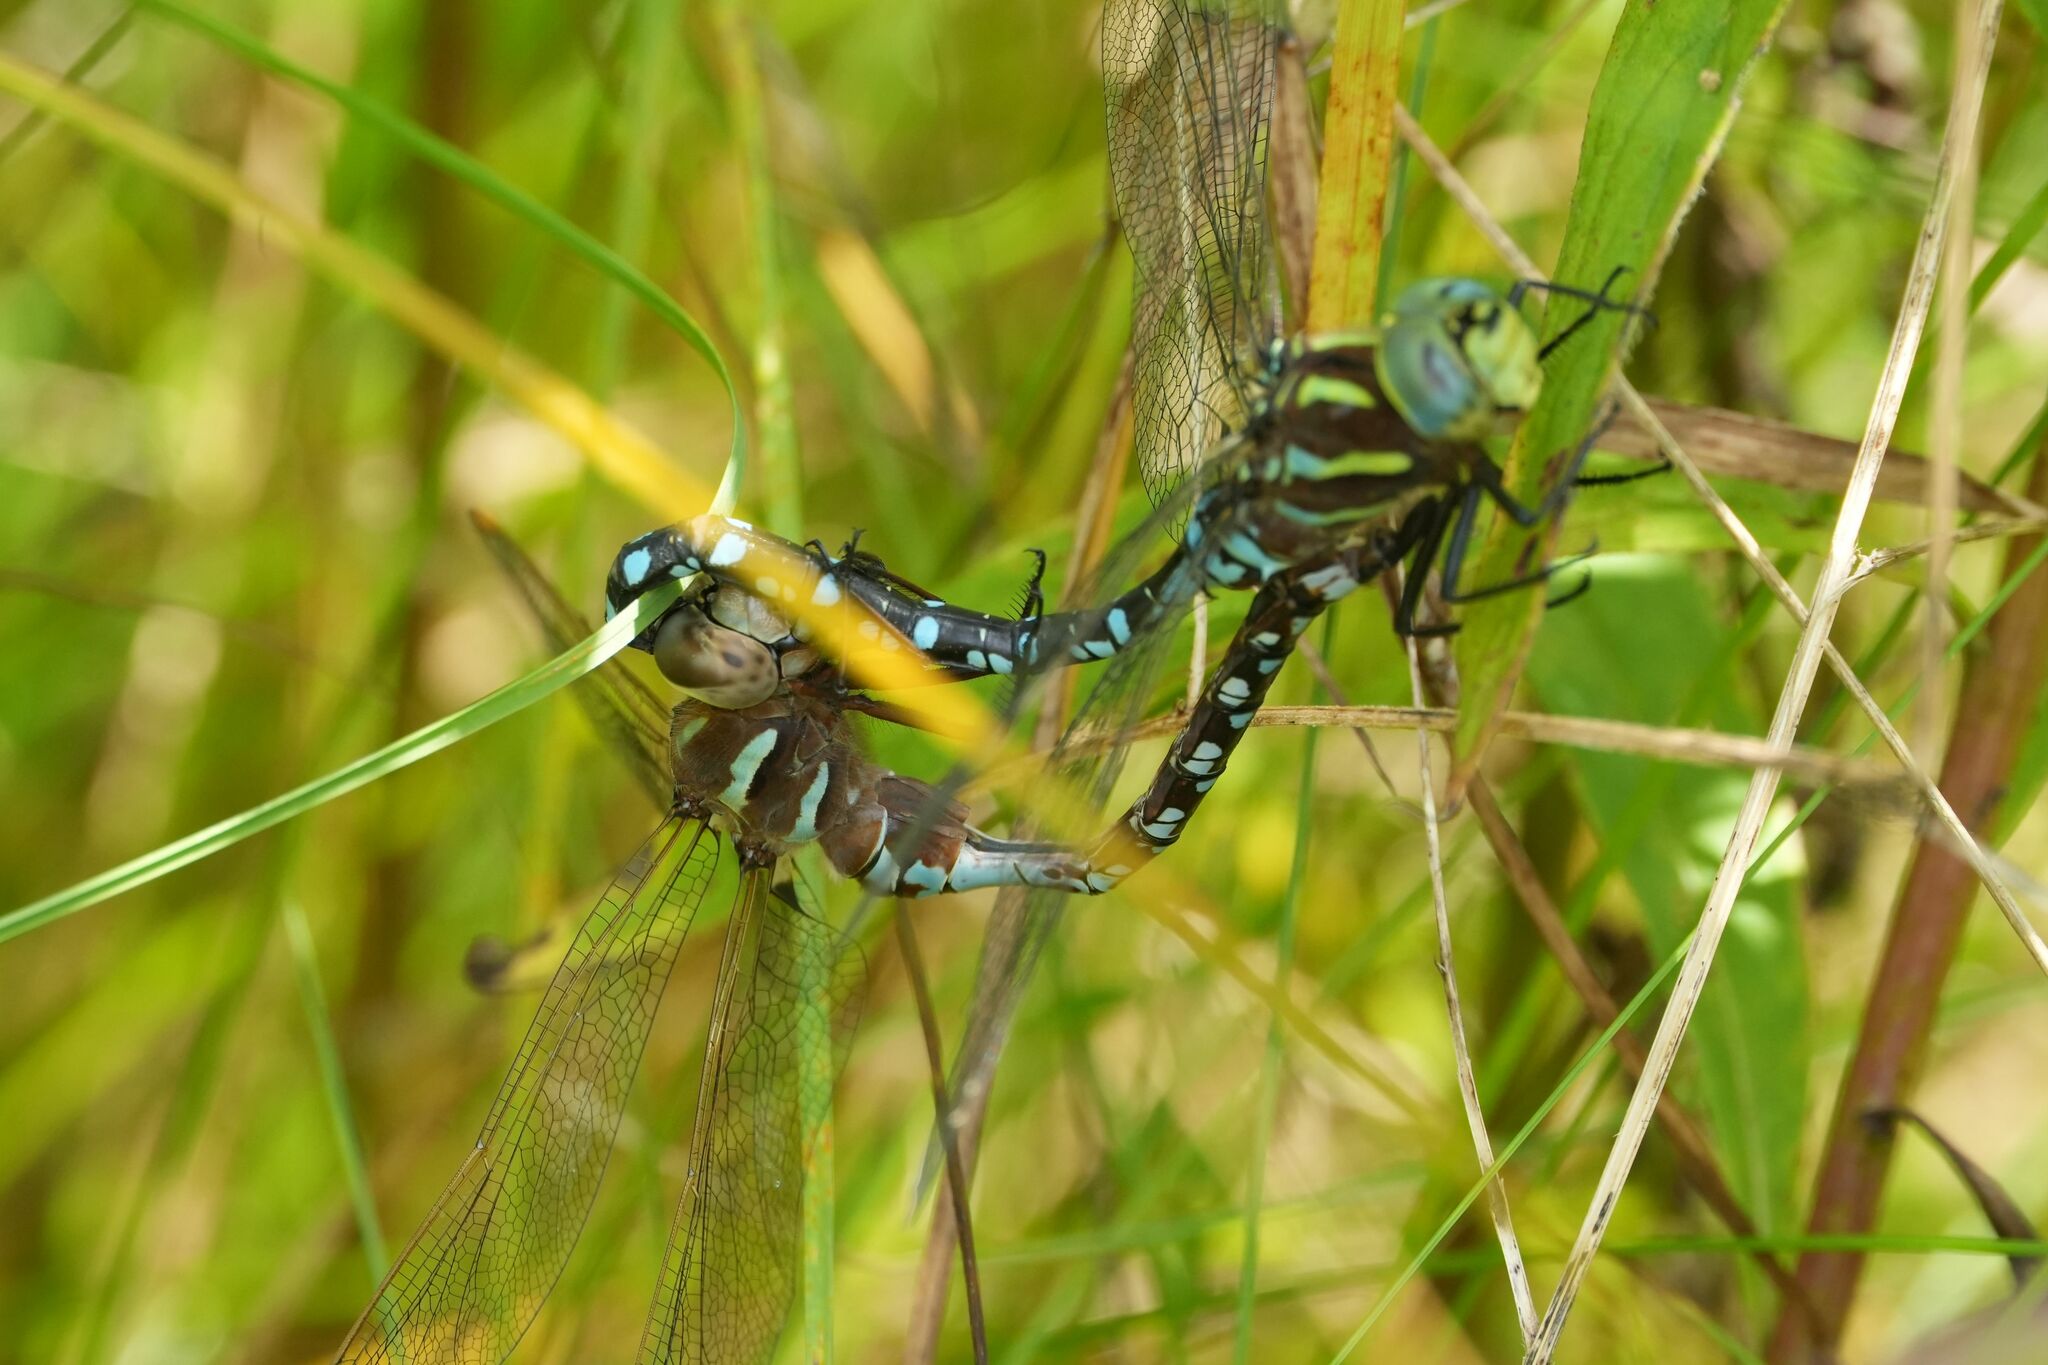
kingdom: Animalia
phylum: Arthropoda
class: Insecta
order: Odonata
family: Aeshnidae
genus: Aeshna
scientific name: Aeshna constricta
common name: Lance-tipped darner
